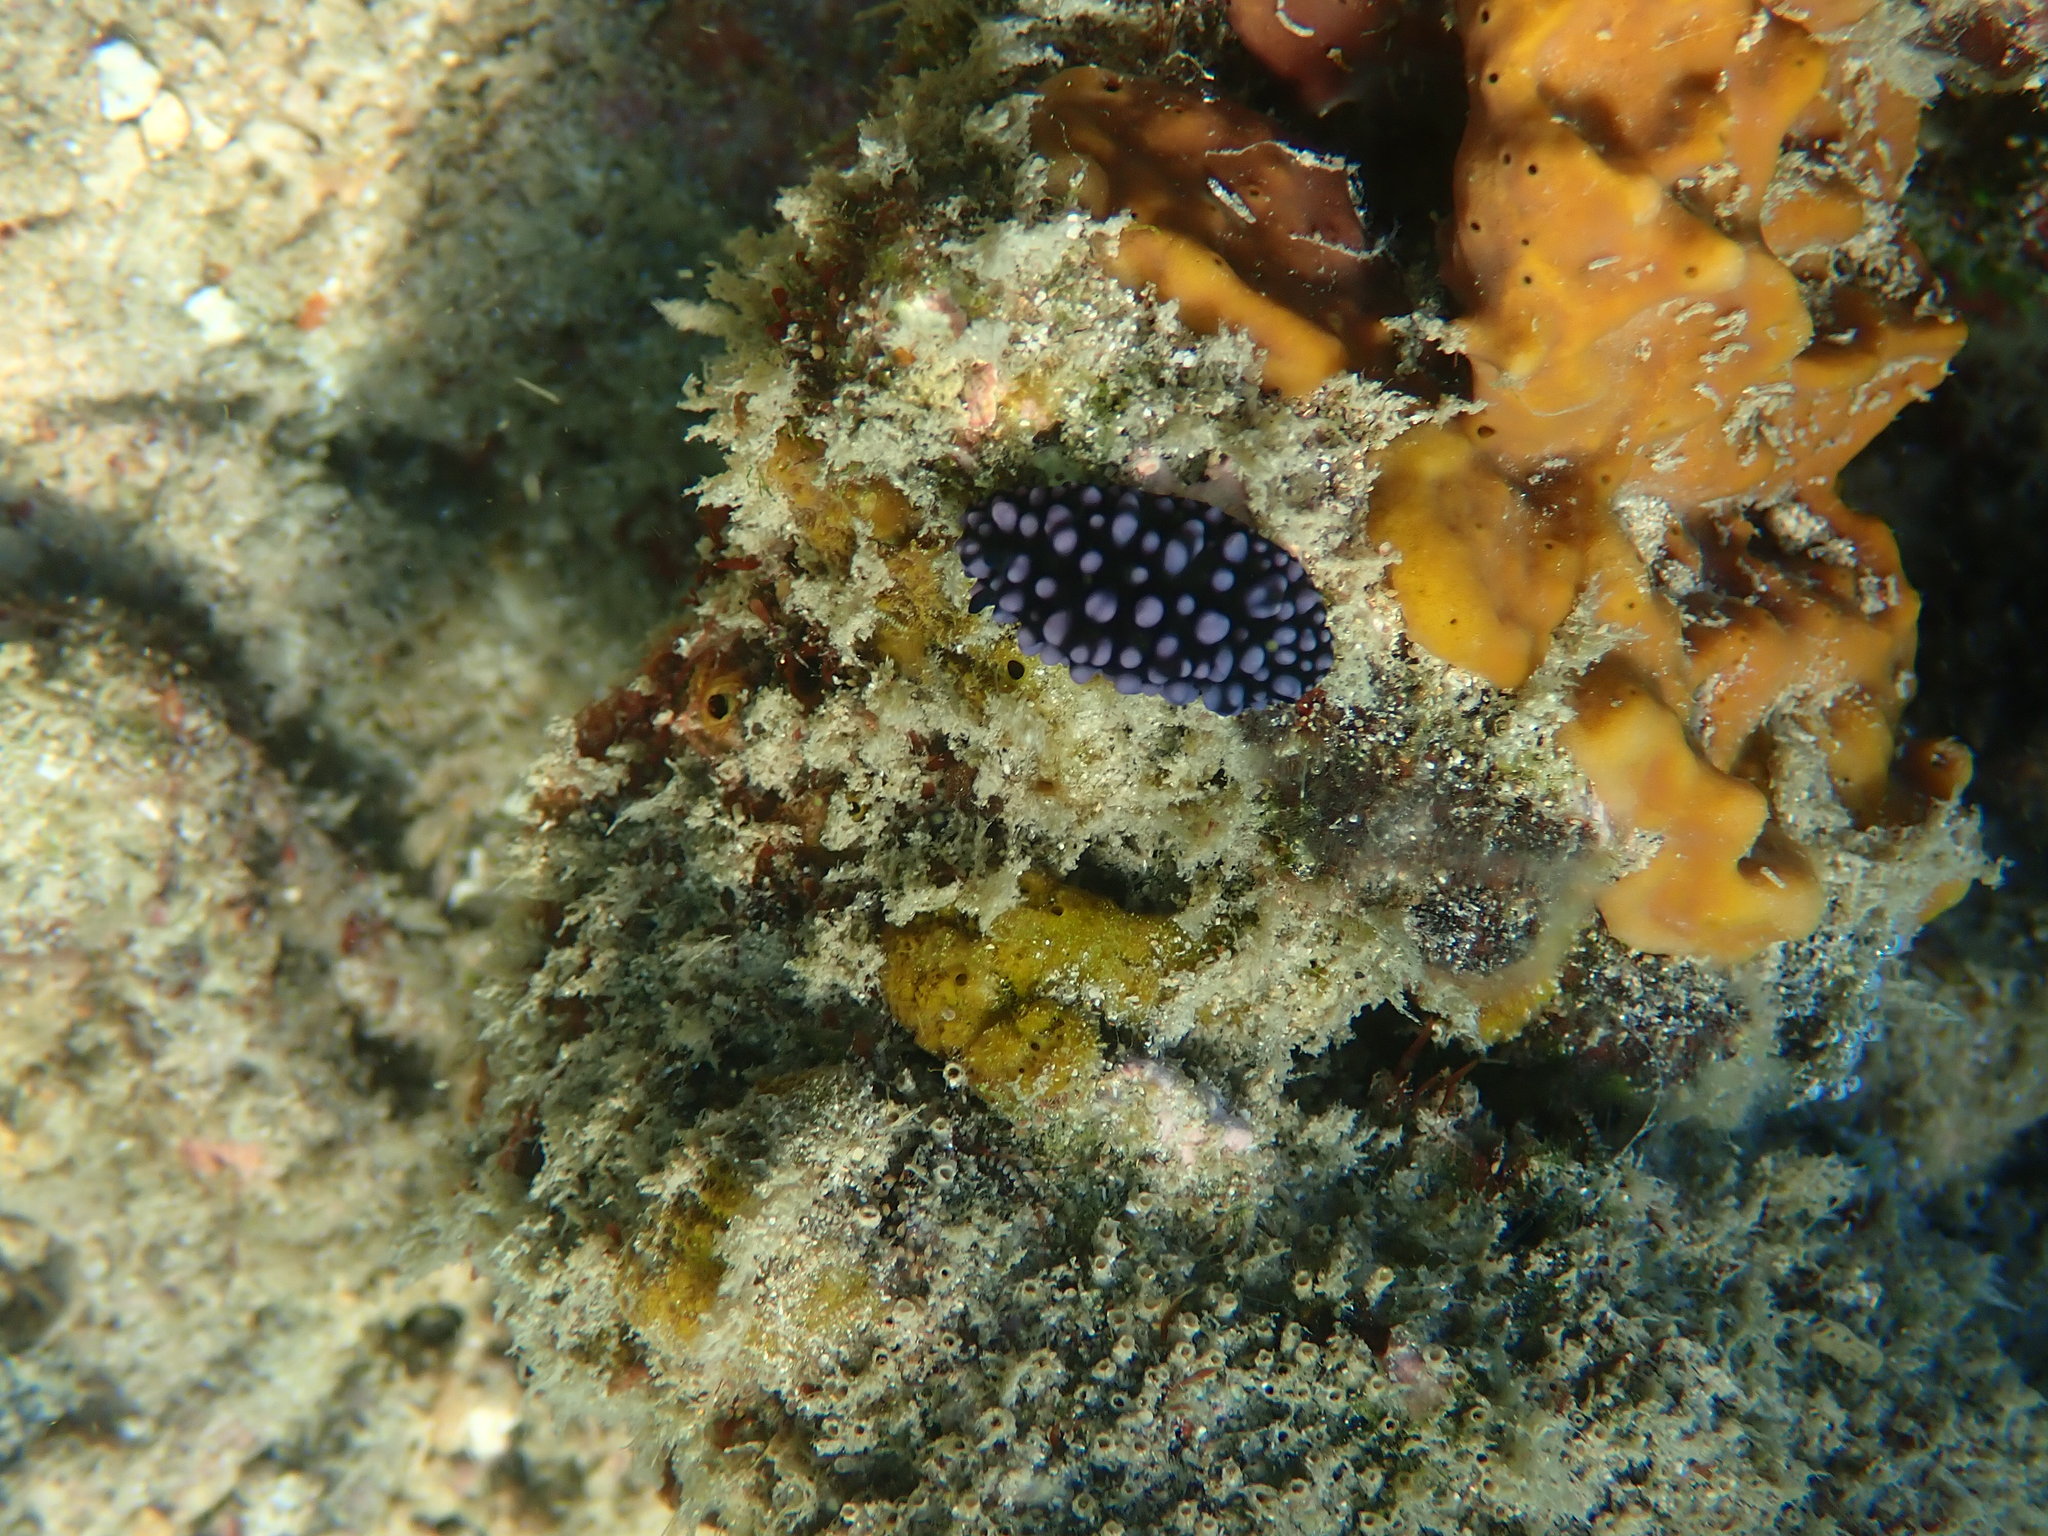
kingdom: Animalia
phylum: Mollusca
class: Gastropoda
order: Nudibranchia
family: Phyllidiidae
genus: Phyllidiella
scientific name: Phyllidiella nigra
